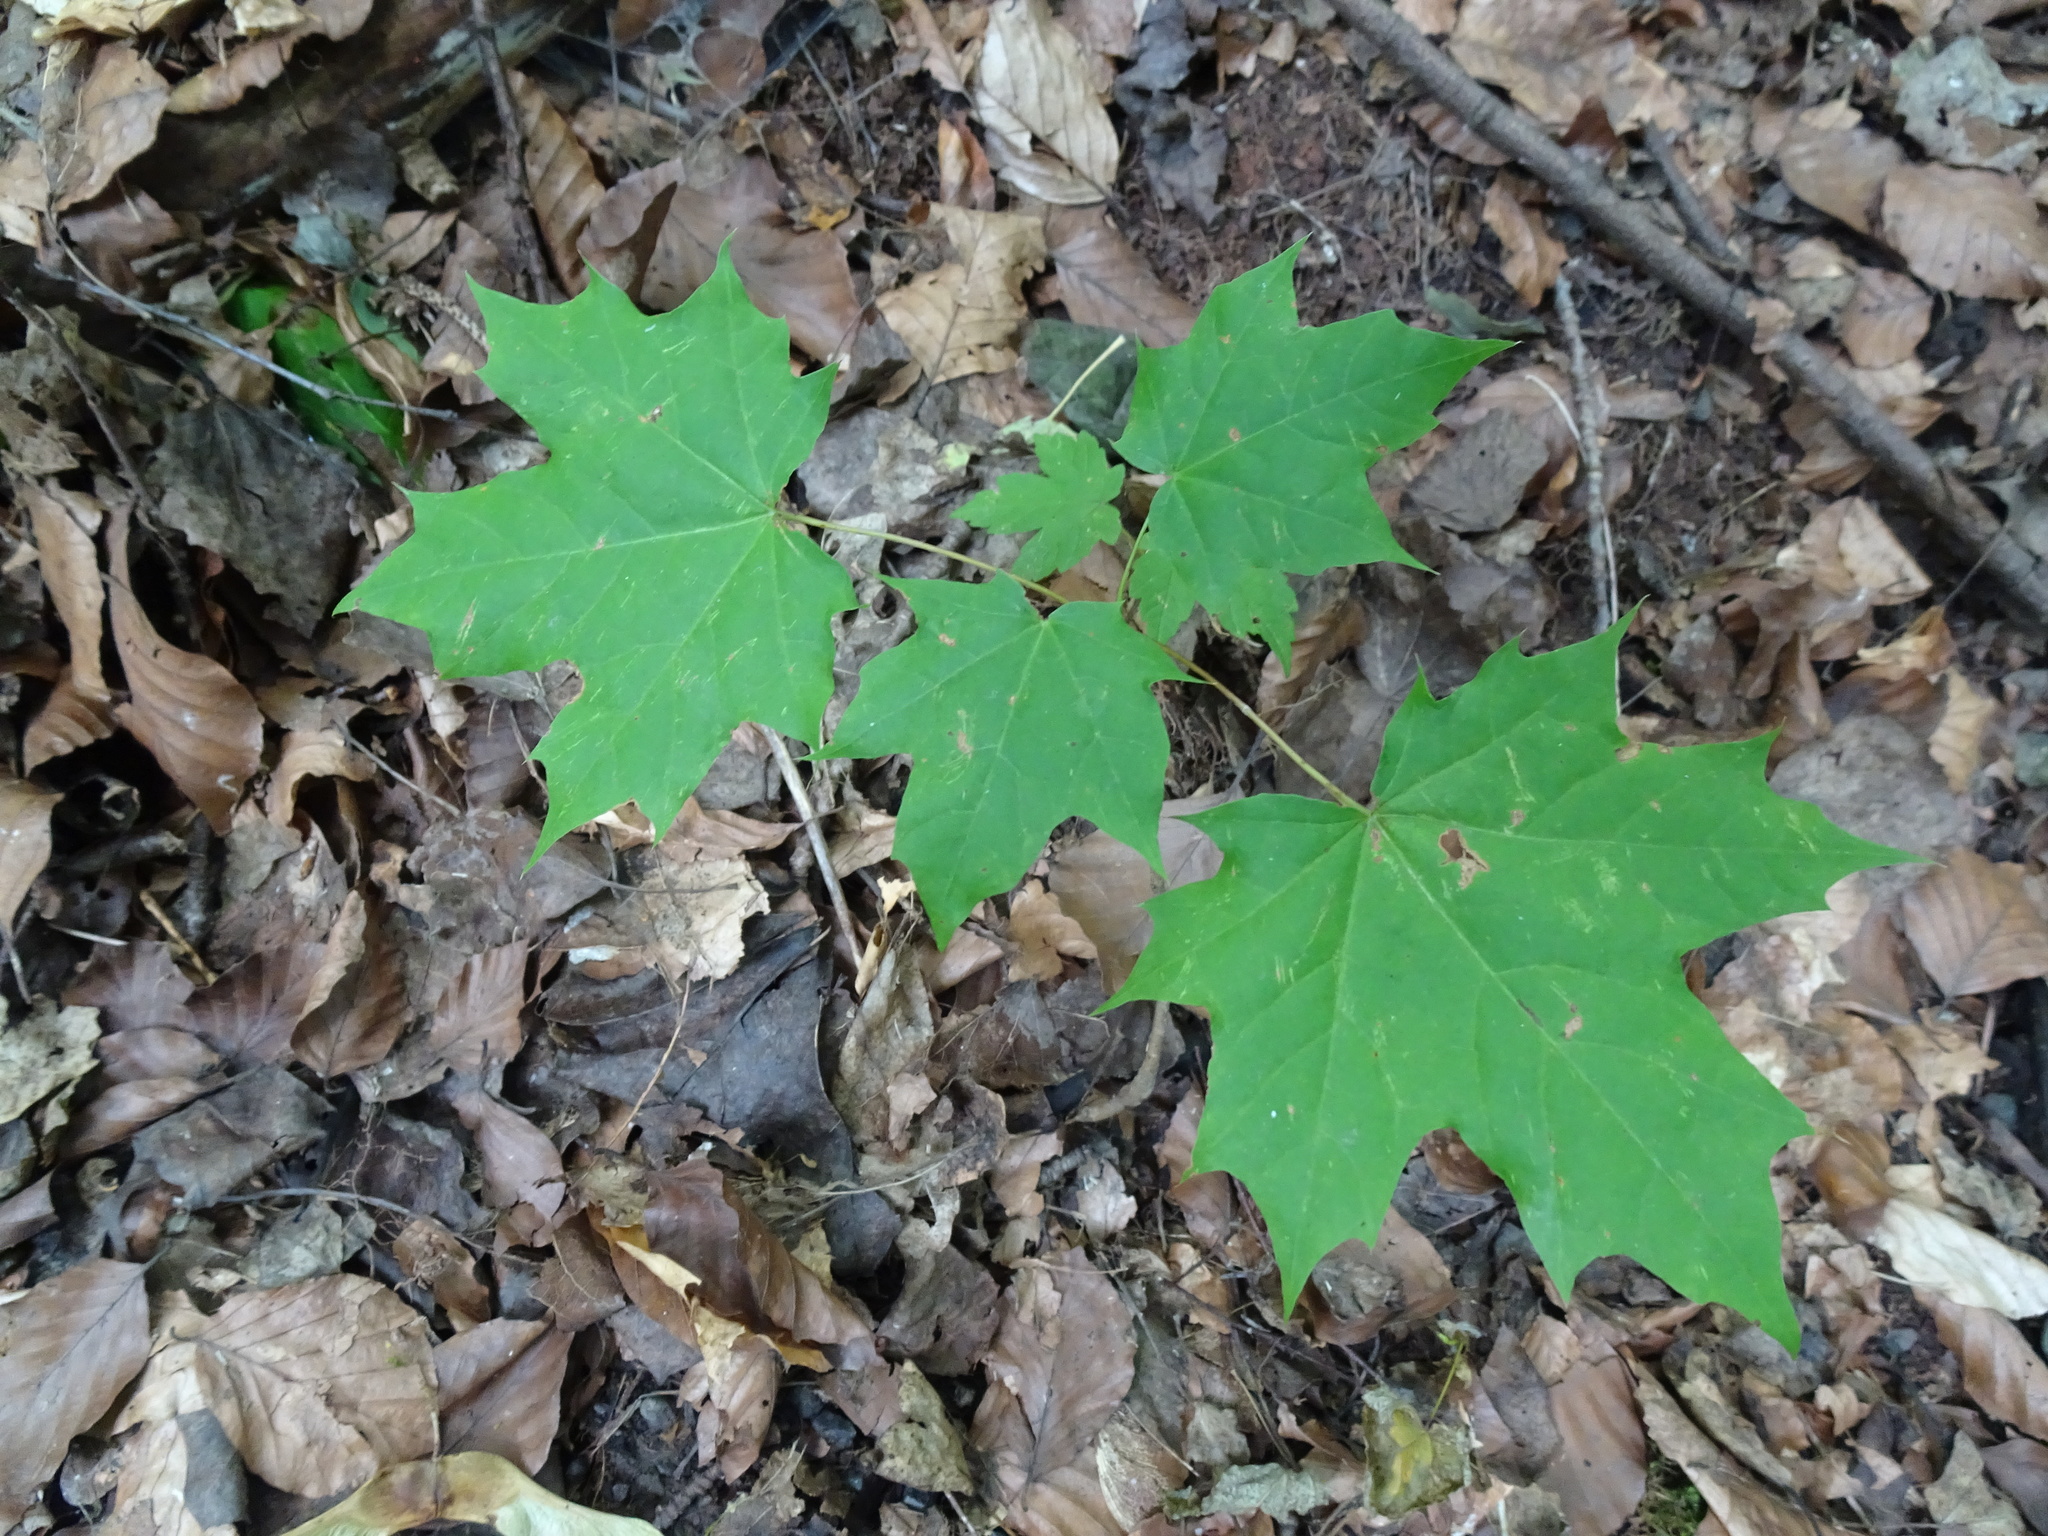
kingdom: Plantae
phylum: Tracheophyta
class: Magnoliopsida
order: Sapindales
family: Sapindaceae
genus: Acer
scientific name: Acer platanoides
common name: Norway maple
